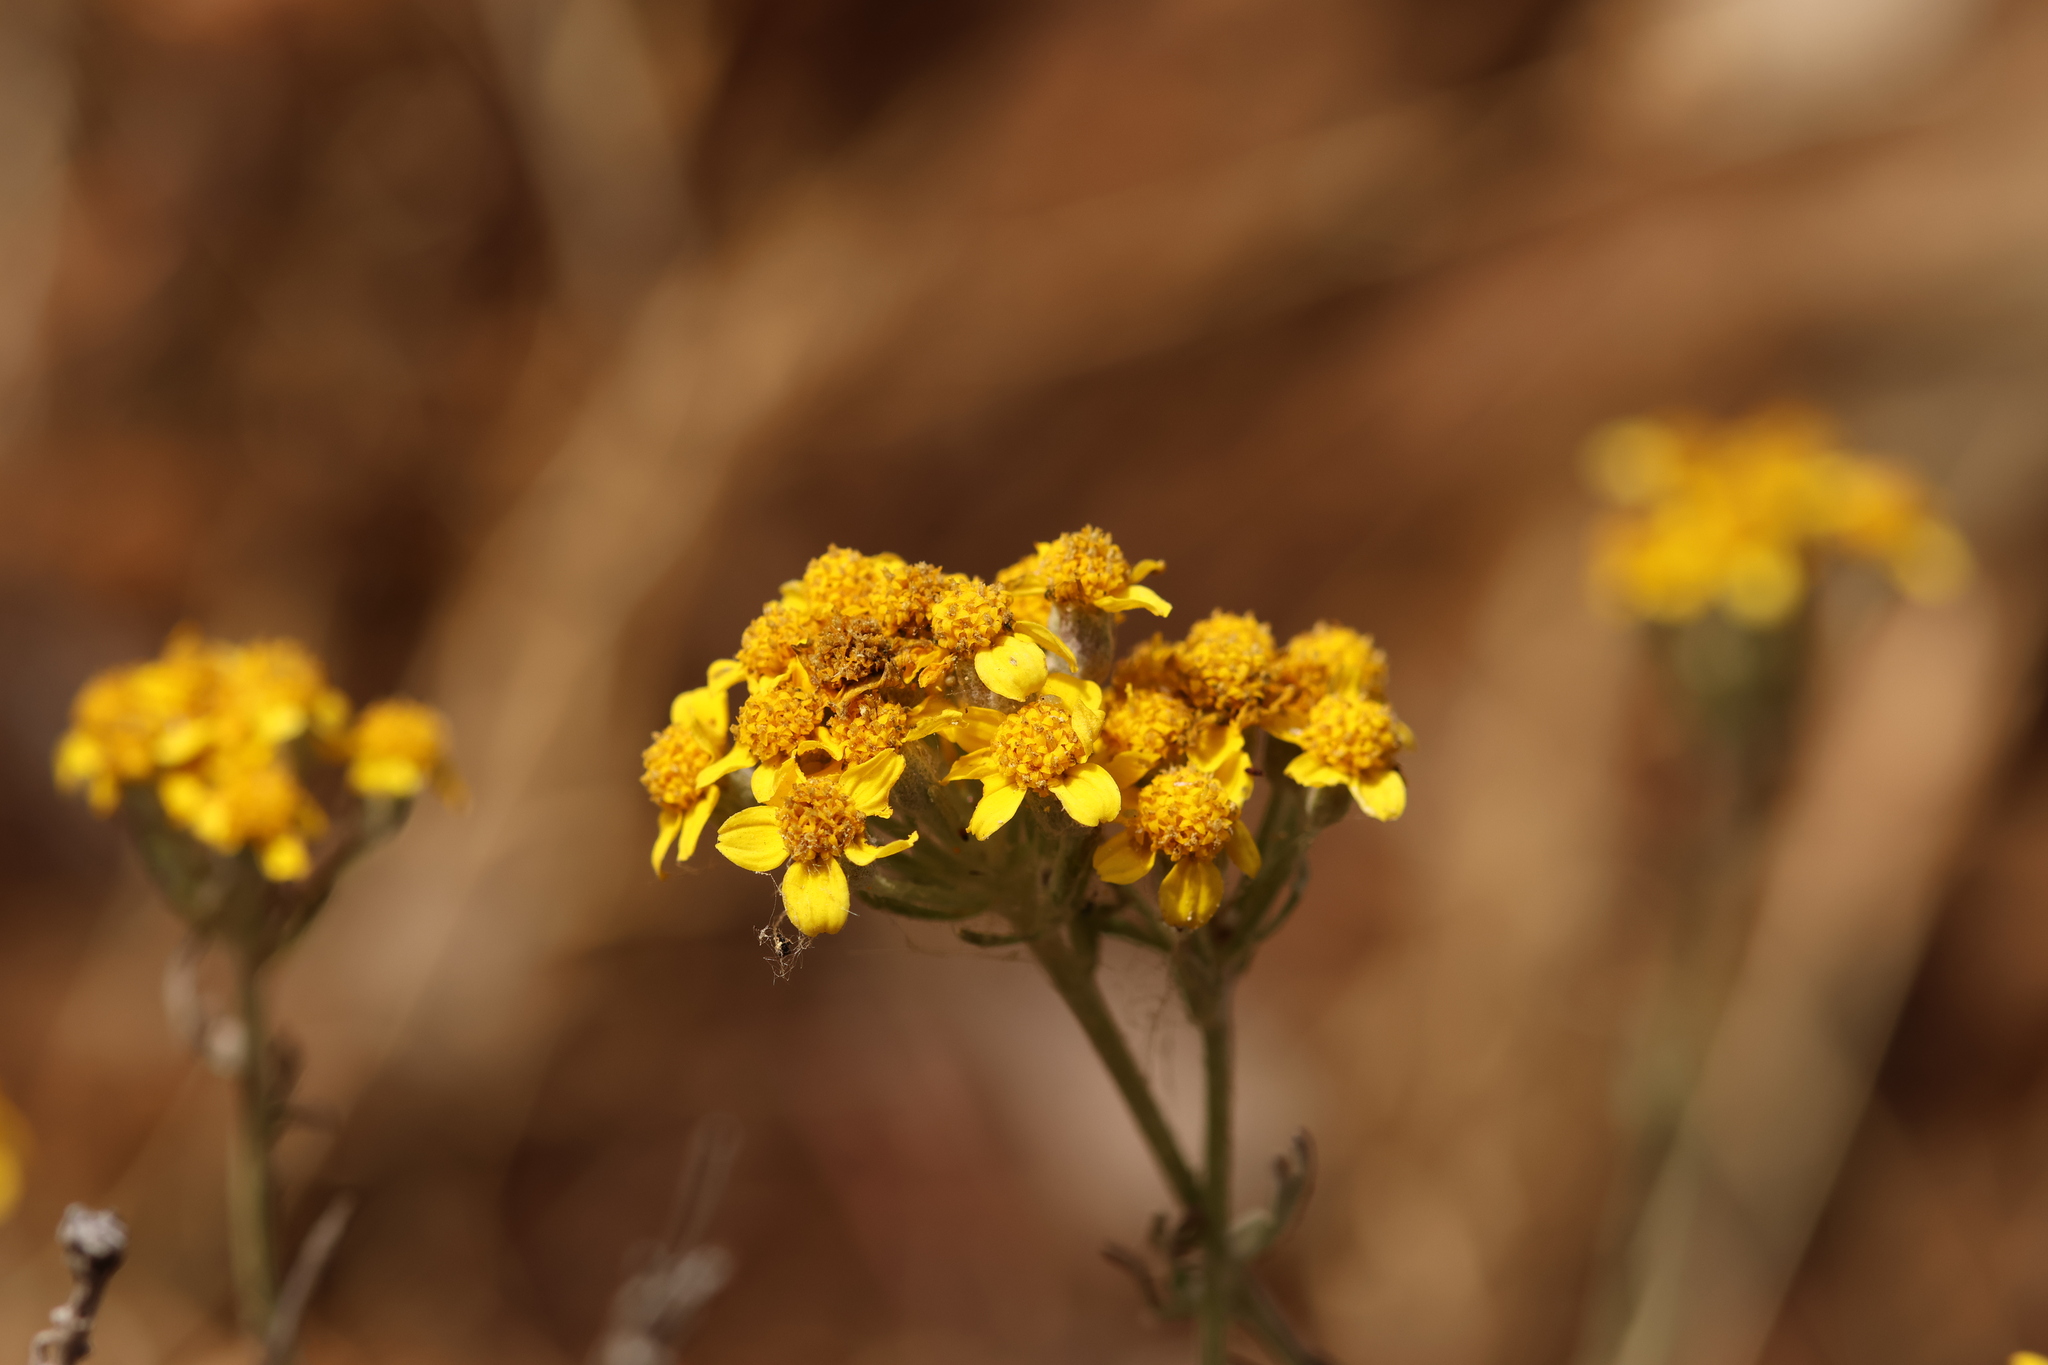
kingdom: Plantae
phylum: Tracheophyta
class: Magnoliopsida
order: Asterales
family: Asteraceae
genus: Eriophyllum
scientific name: Eriophyllum confertiflorum
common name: Golden-yarrow
